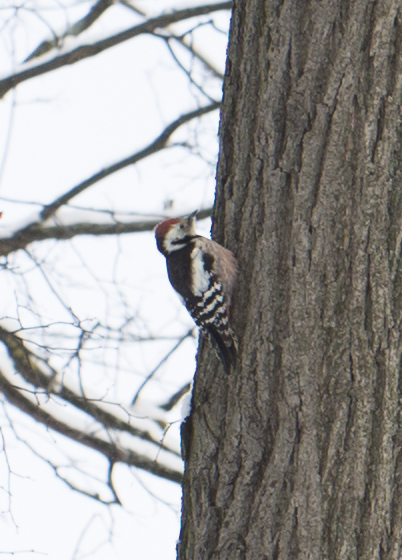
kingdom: Animalia
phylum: Chordata
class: Aves
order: Piciformes
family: Picidae
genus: Dendrocoptes
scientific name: Dendrocoptes medius
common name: Middle spotted woodpecker
